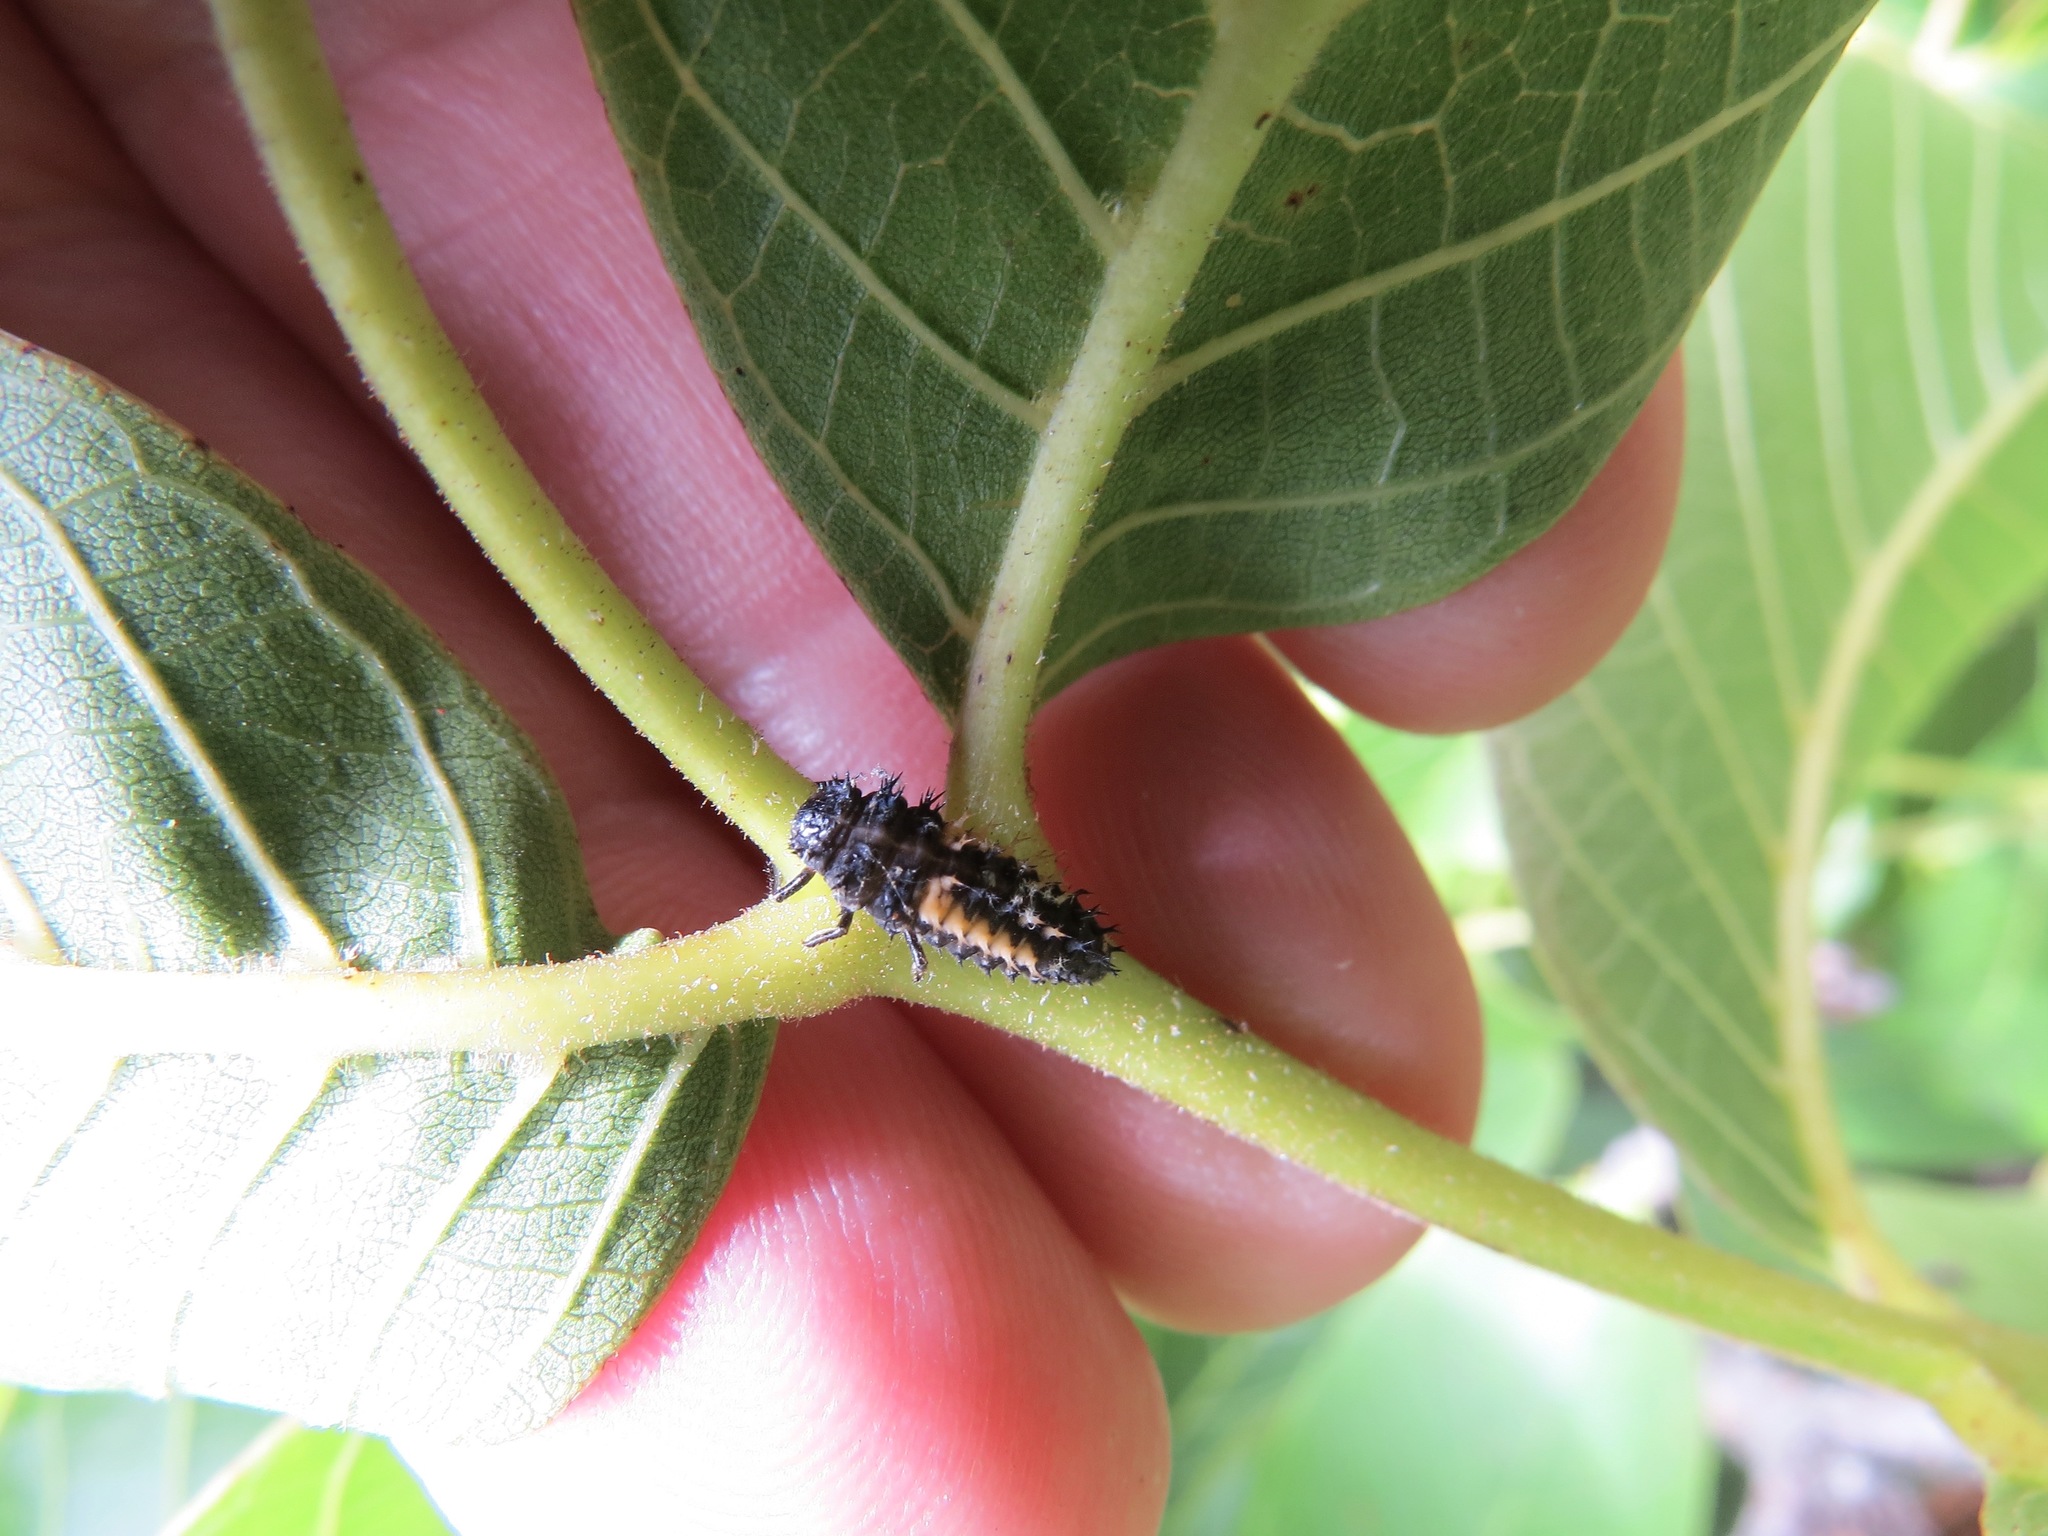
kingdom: Animalia
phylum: Arthropoda
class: Insecta
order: Coleoptera
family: Coccinellidae
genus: Harmonia
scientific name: Harmonia axyridis
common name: Harlequin ladybird
